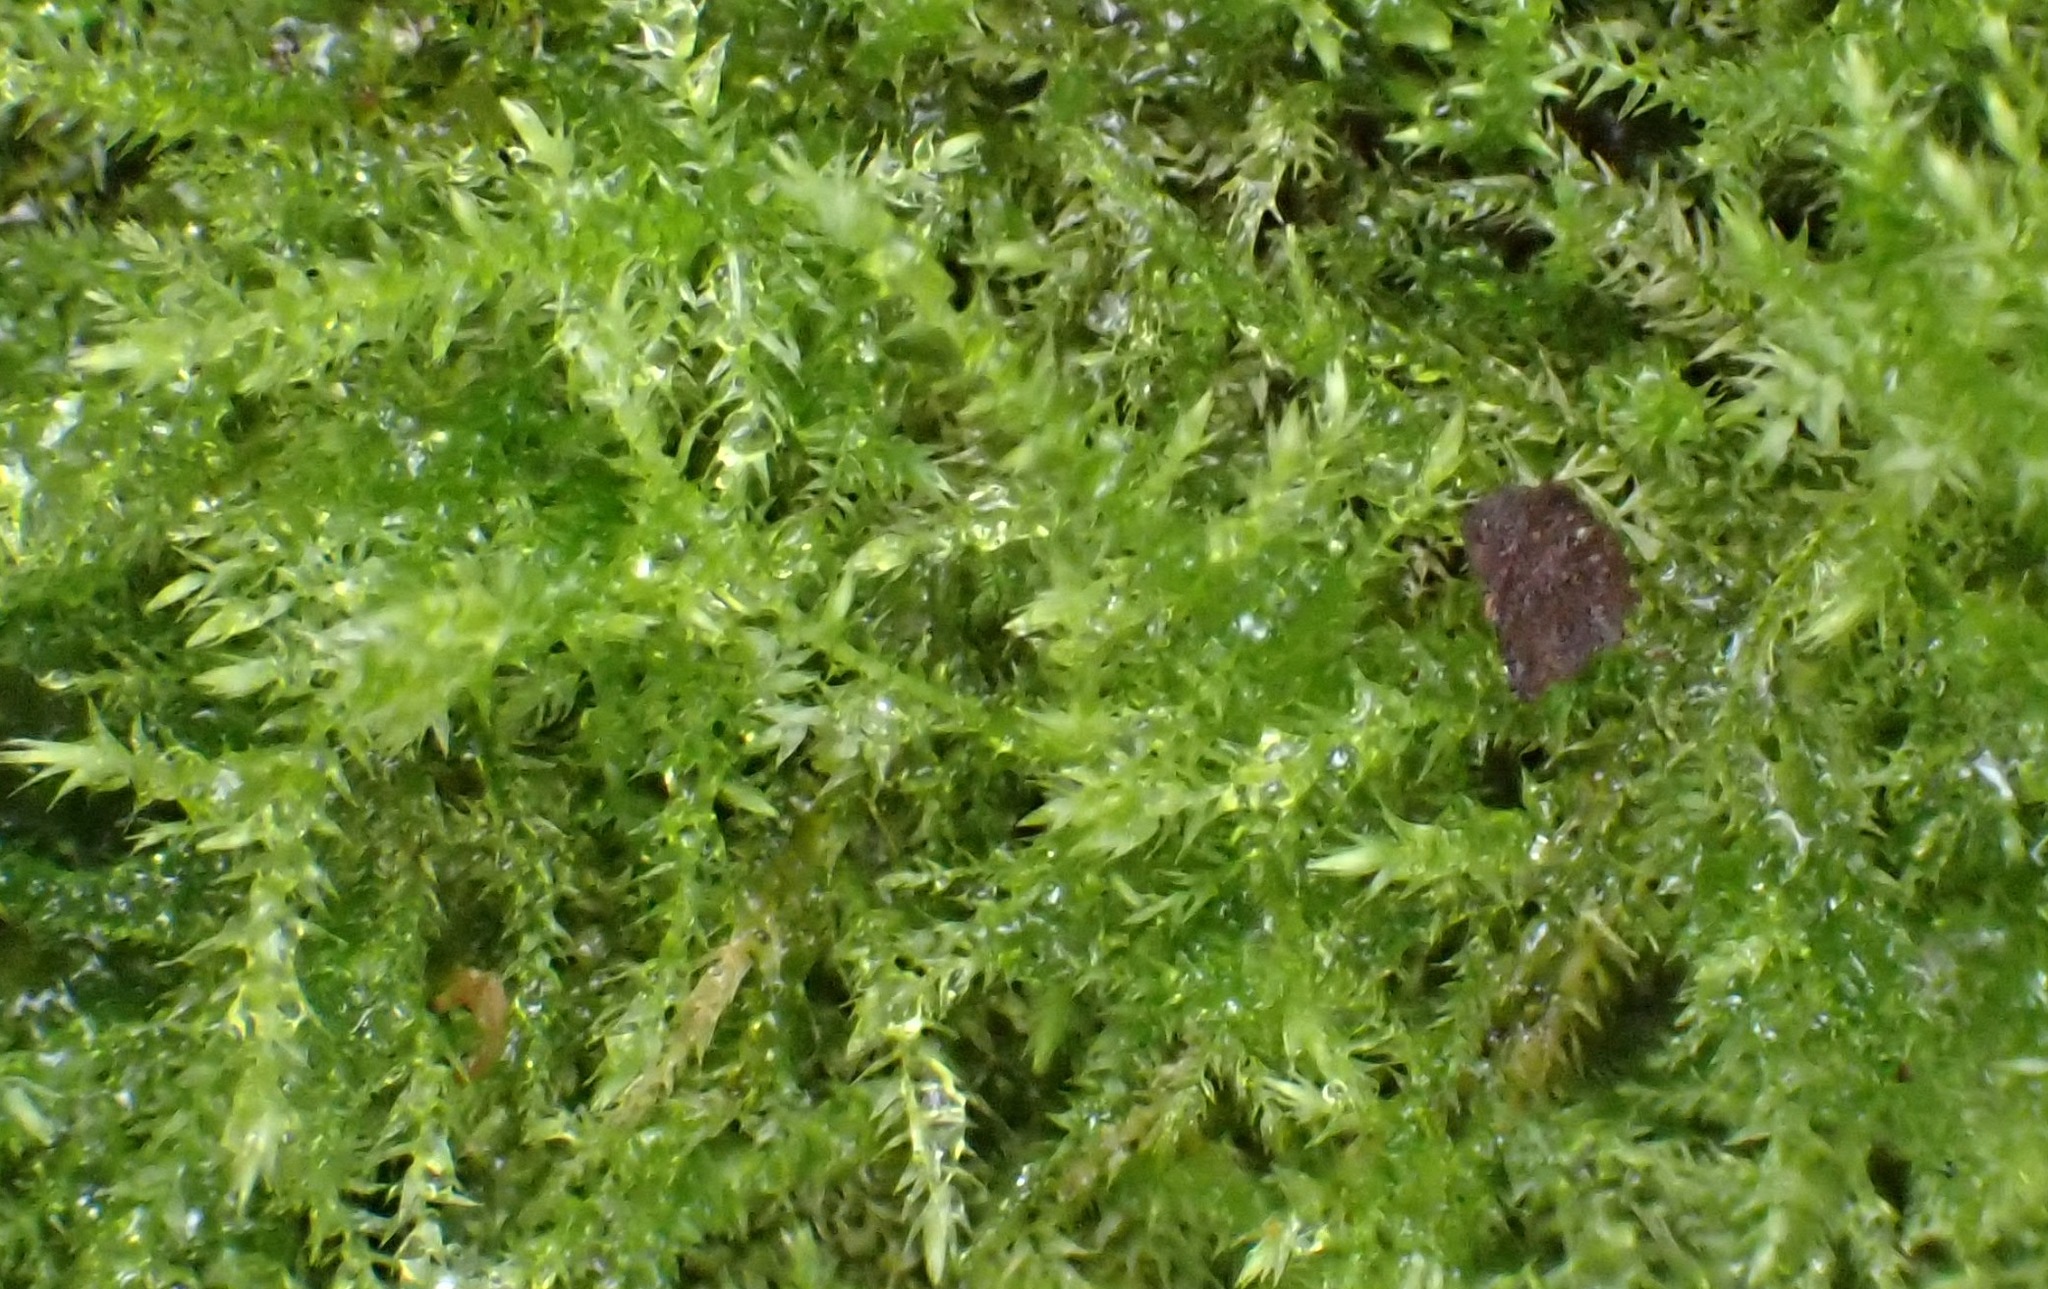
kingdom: Plantae
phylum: Bryophyta
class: Bryopsida
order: Hypnales
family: Brachytheciaceae
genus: Kindbergia
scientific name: Kindbergia praelonga
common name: Slender beaked moss
